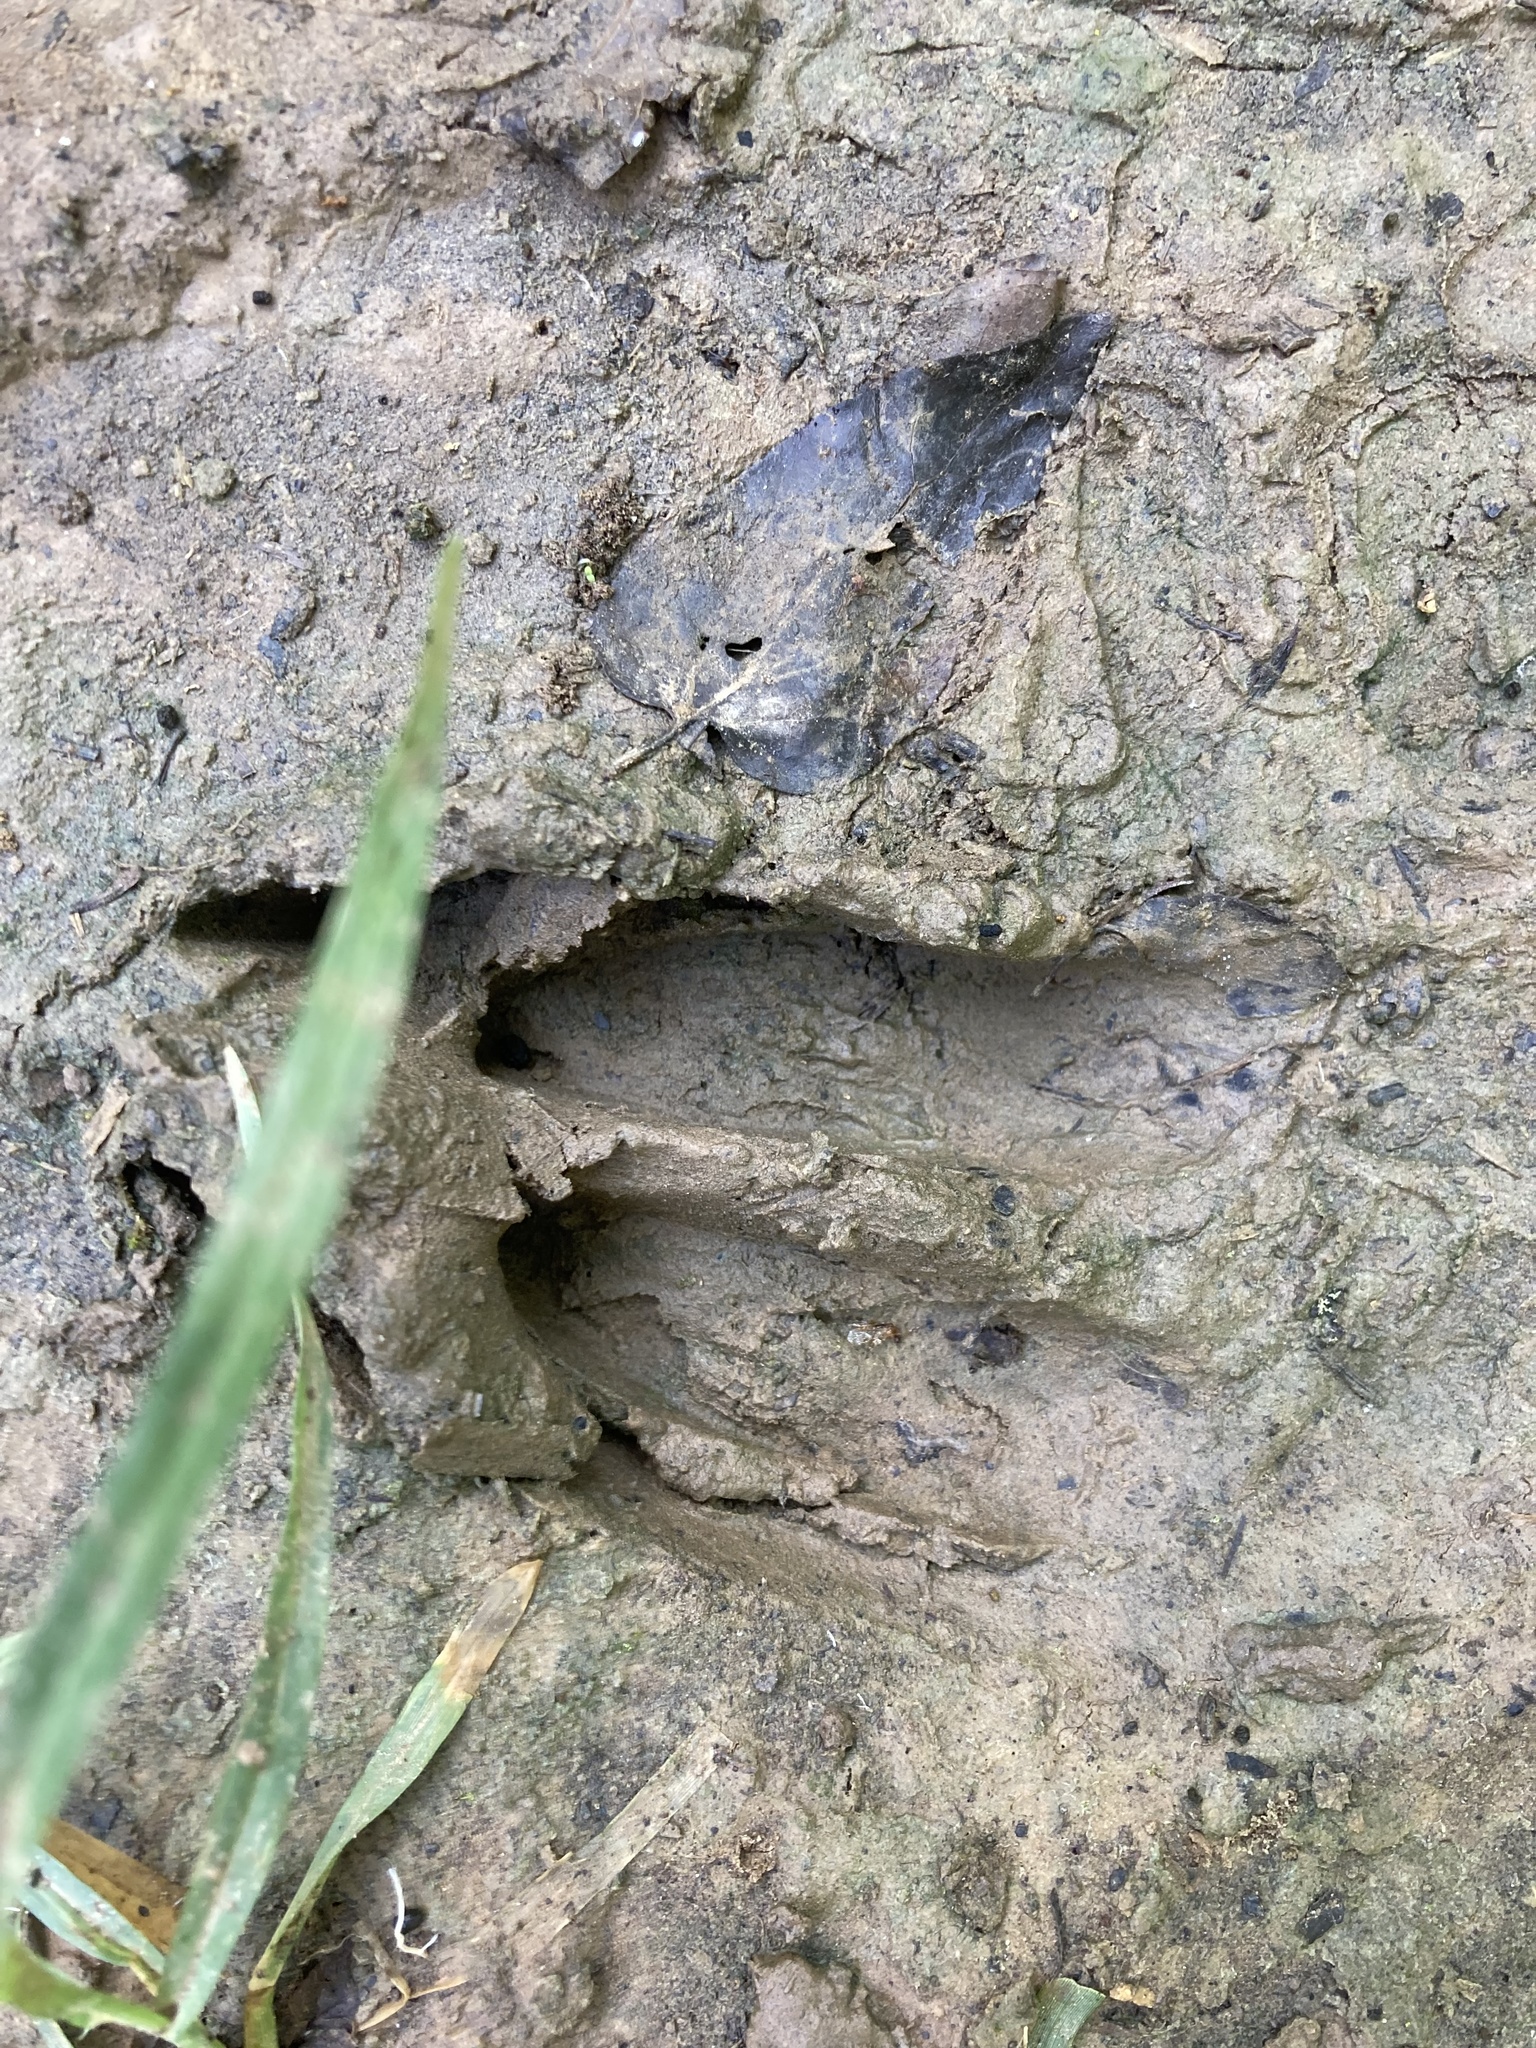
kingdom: Animalia
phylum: Chordata
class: Mammalia
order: Artiodactyla
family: Cervidae
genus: Odocoileus
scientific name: Odocoileus virginianus
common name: White-tailed deer
